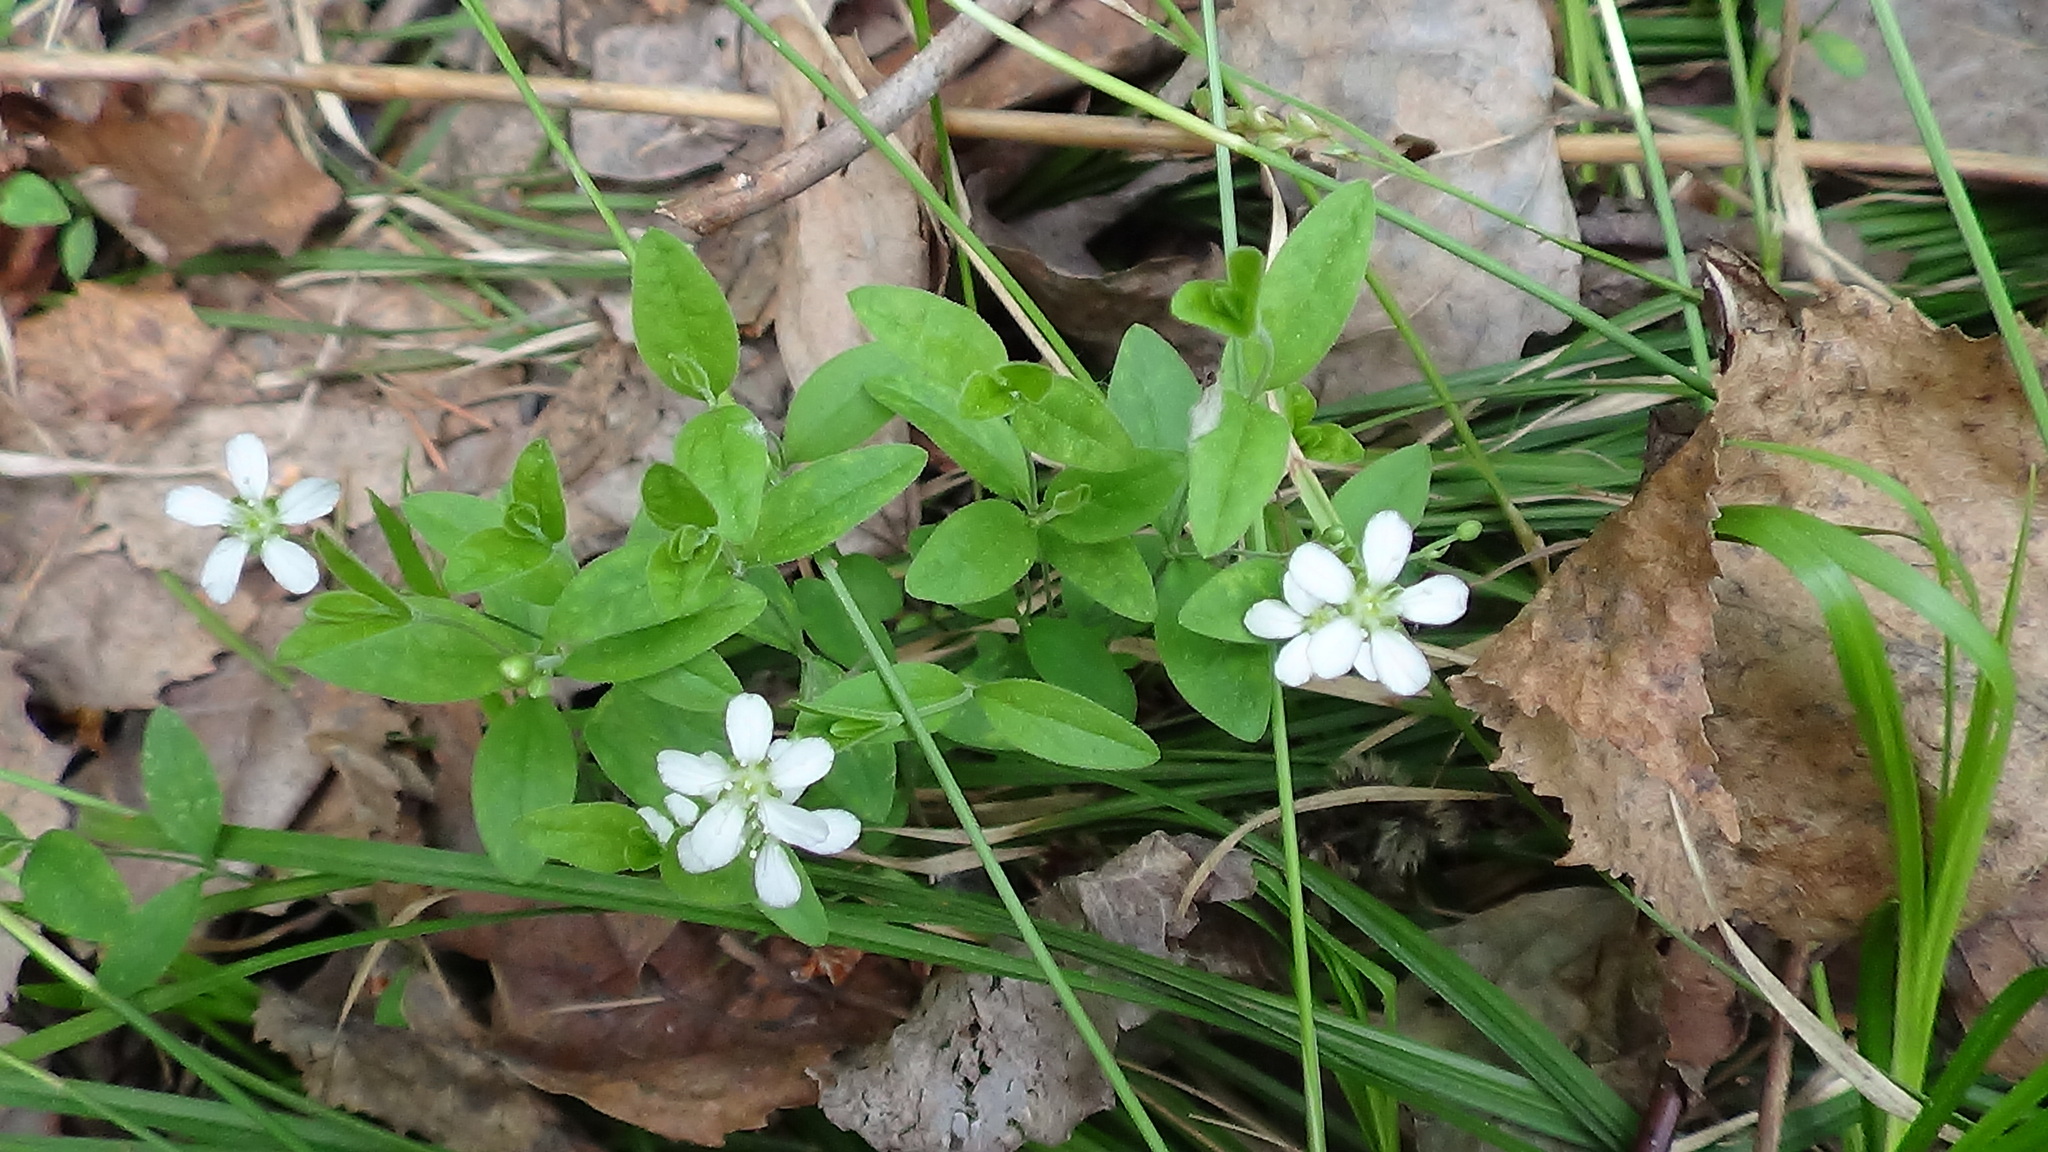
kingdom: Plantae
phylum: Tracheophyta
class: Magnoliopsida
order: Caryophyllales
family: Caryophyllaceae
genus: Moehringia
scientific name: Moehringia lateriflora
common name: Blunt-leaved sandwort
